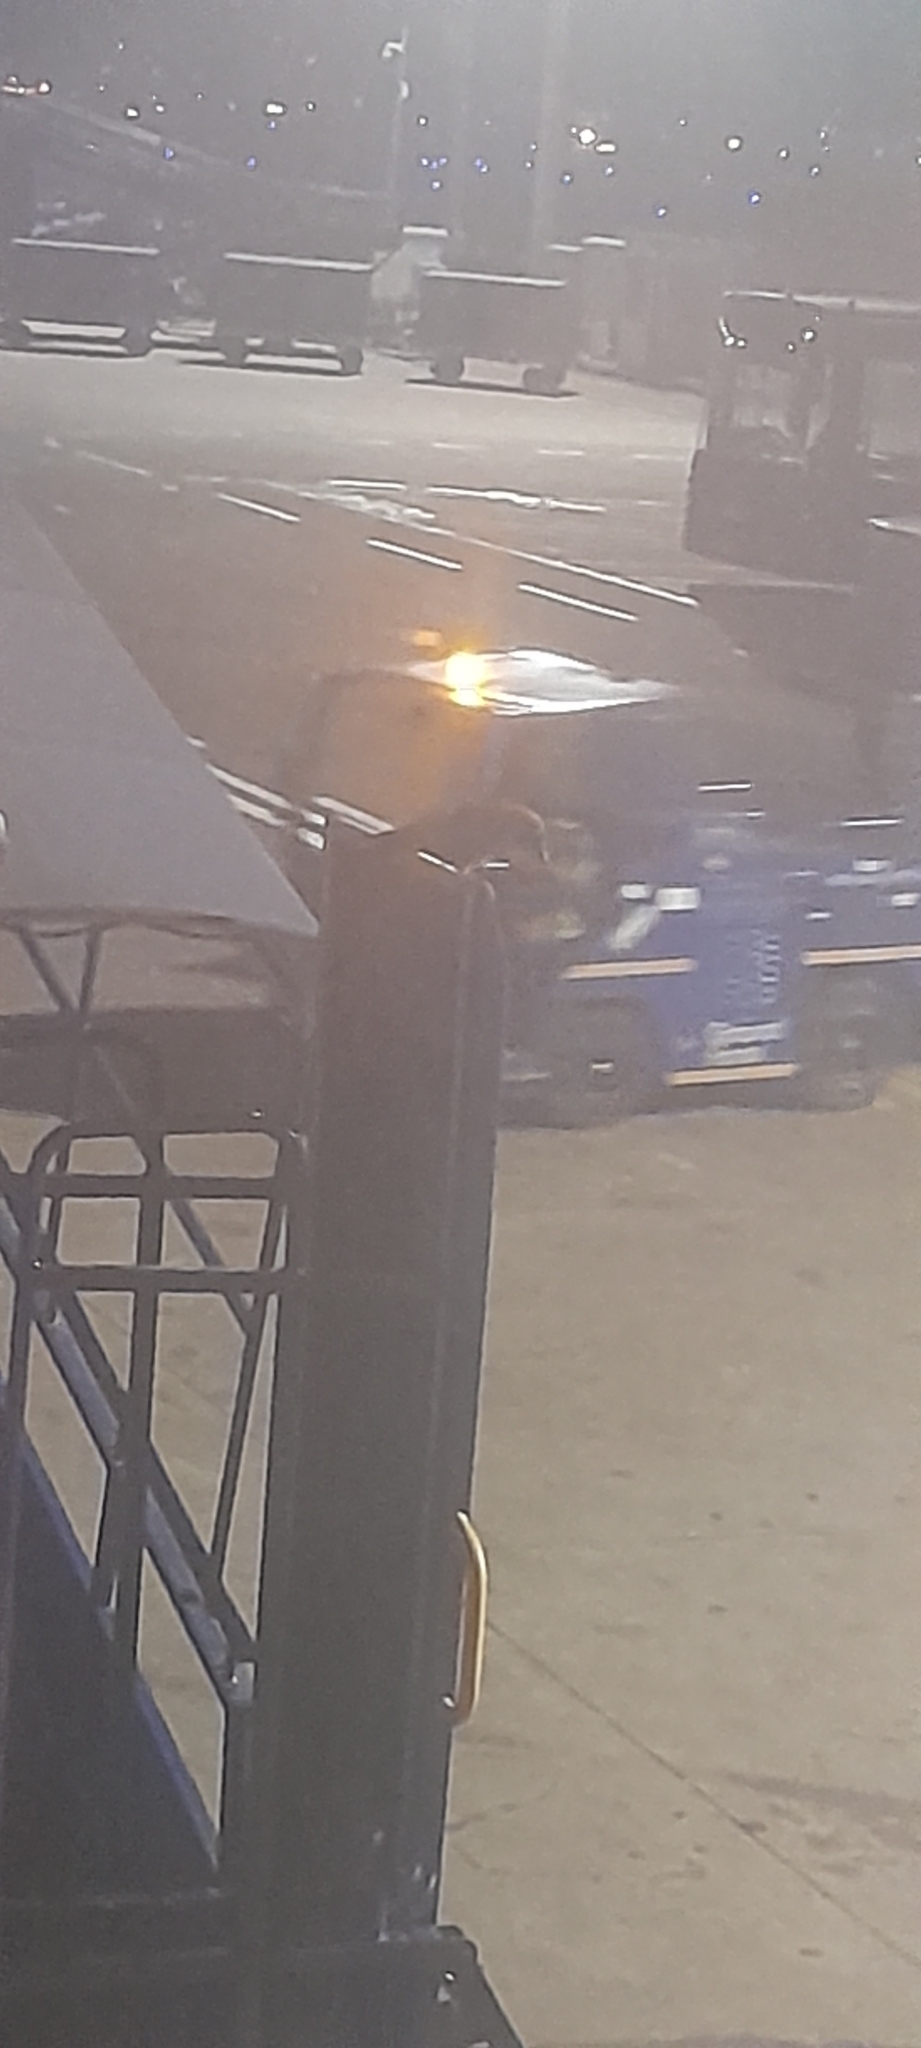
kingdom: Animalia
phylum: Chordata
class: Aves
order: Passeriformes
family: Corvidae
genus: Corvus
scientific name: Corvus splendens
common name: House crow
